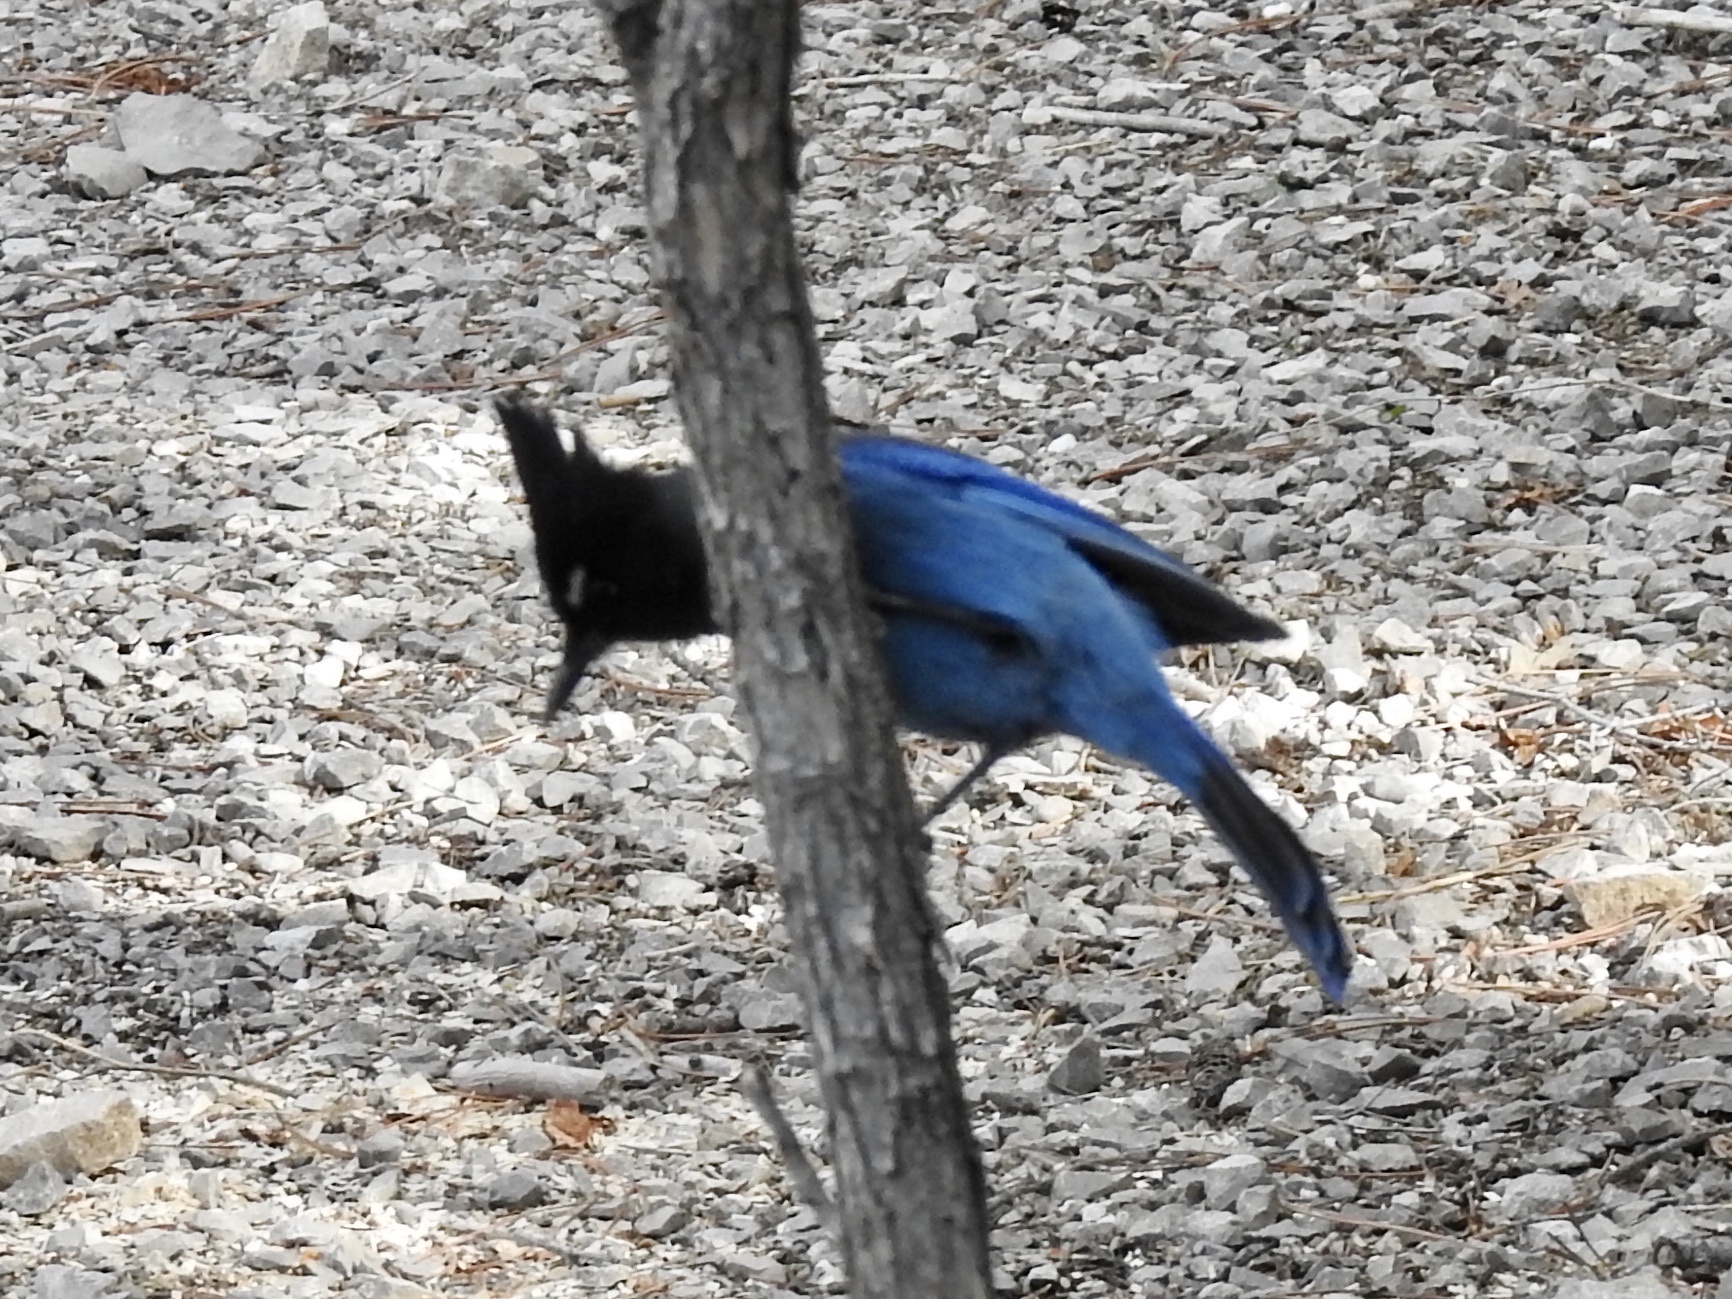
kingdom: Animalia
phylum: Chordata
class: Aves
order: Passeriformes
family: Corvidae
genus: Cyanocitta
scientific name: Cyanocitta stelleri
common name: Steller's jay
